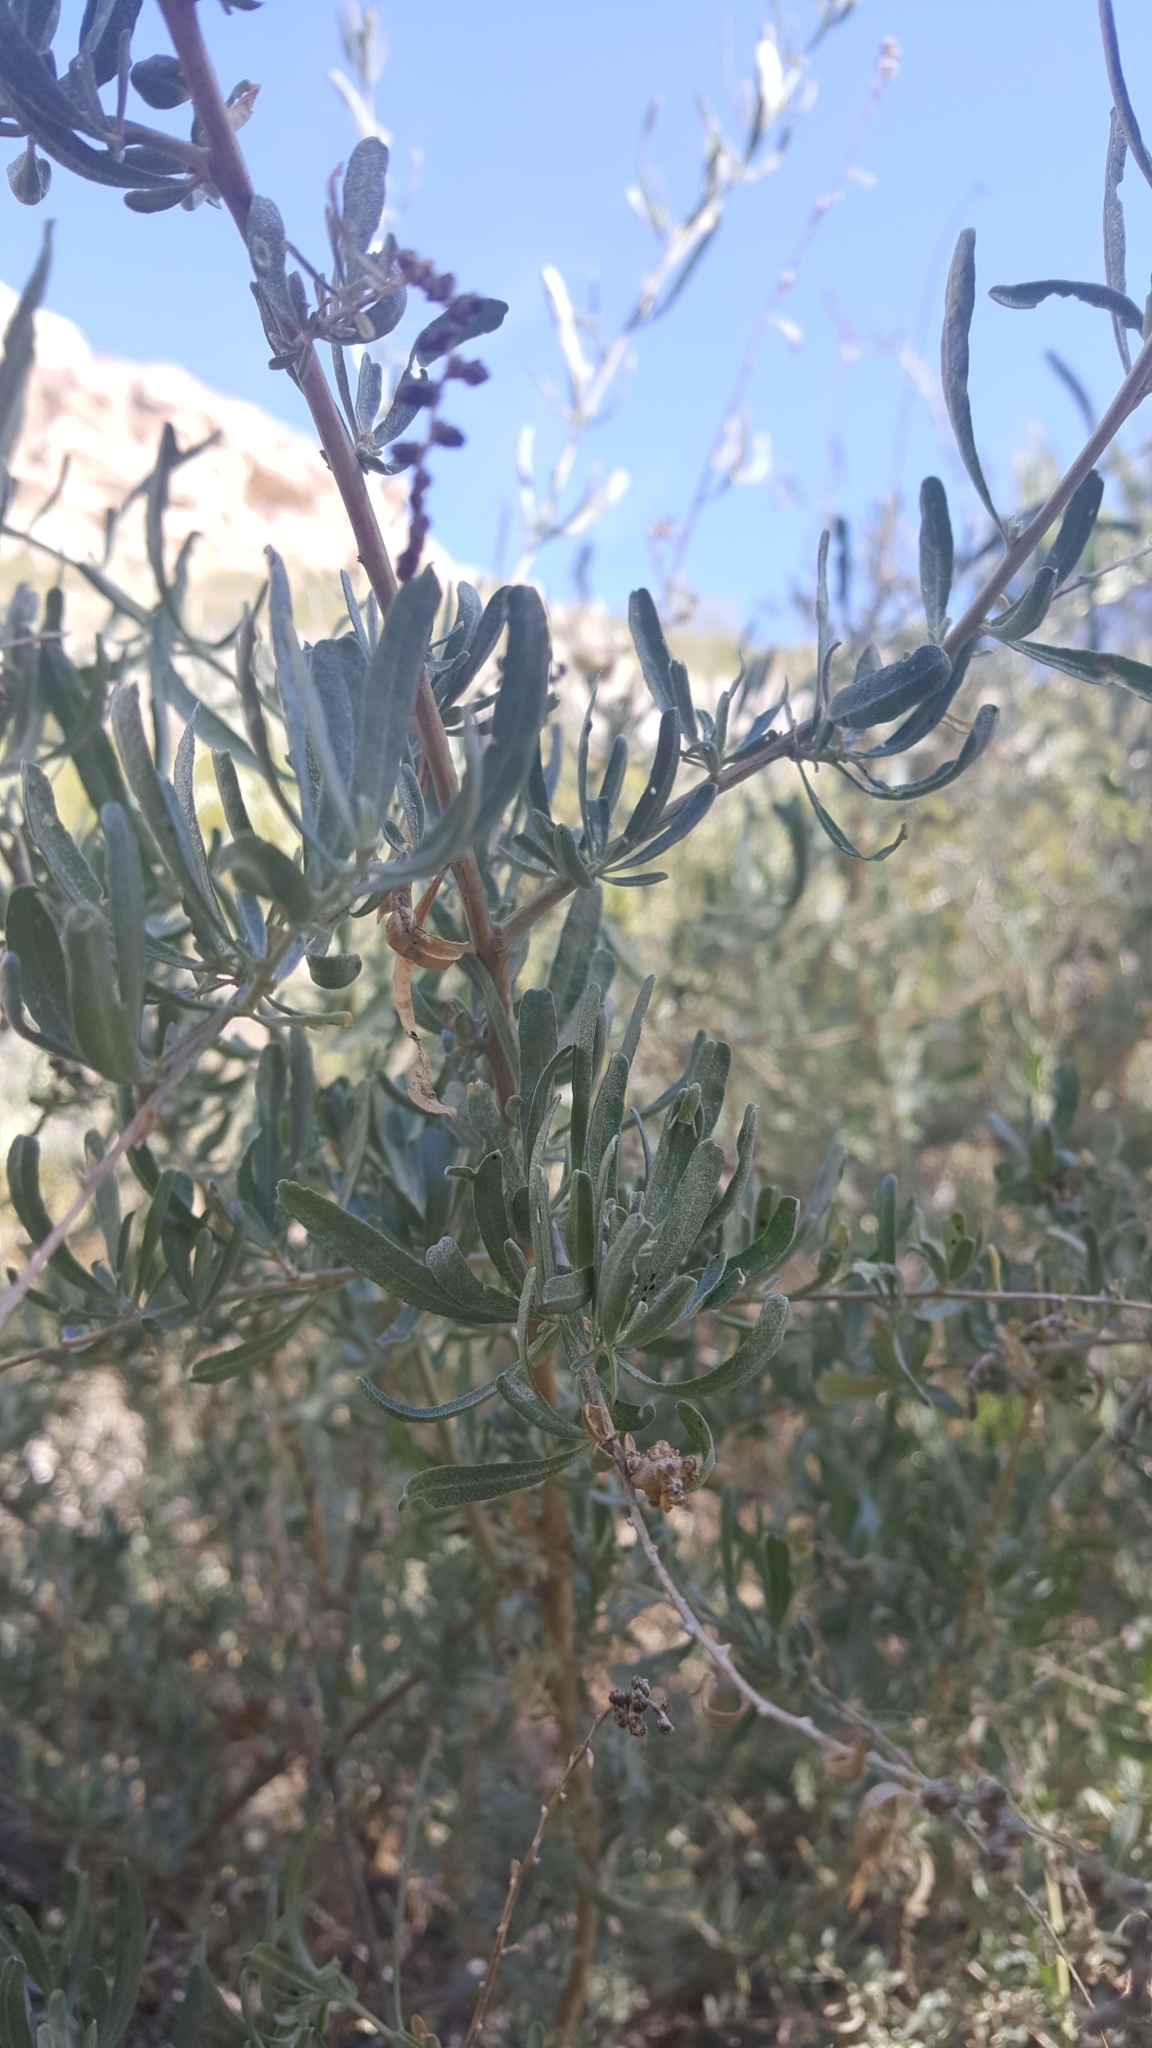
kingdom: Plantae
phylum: Tracheophyta
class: Magnoliopsida
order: Caryophyllales
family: Amaranthaceae
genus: Atriplex
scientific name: Atriplex canescens
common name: Four-wing saltbush
